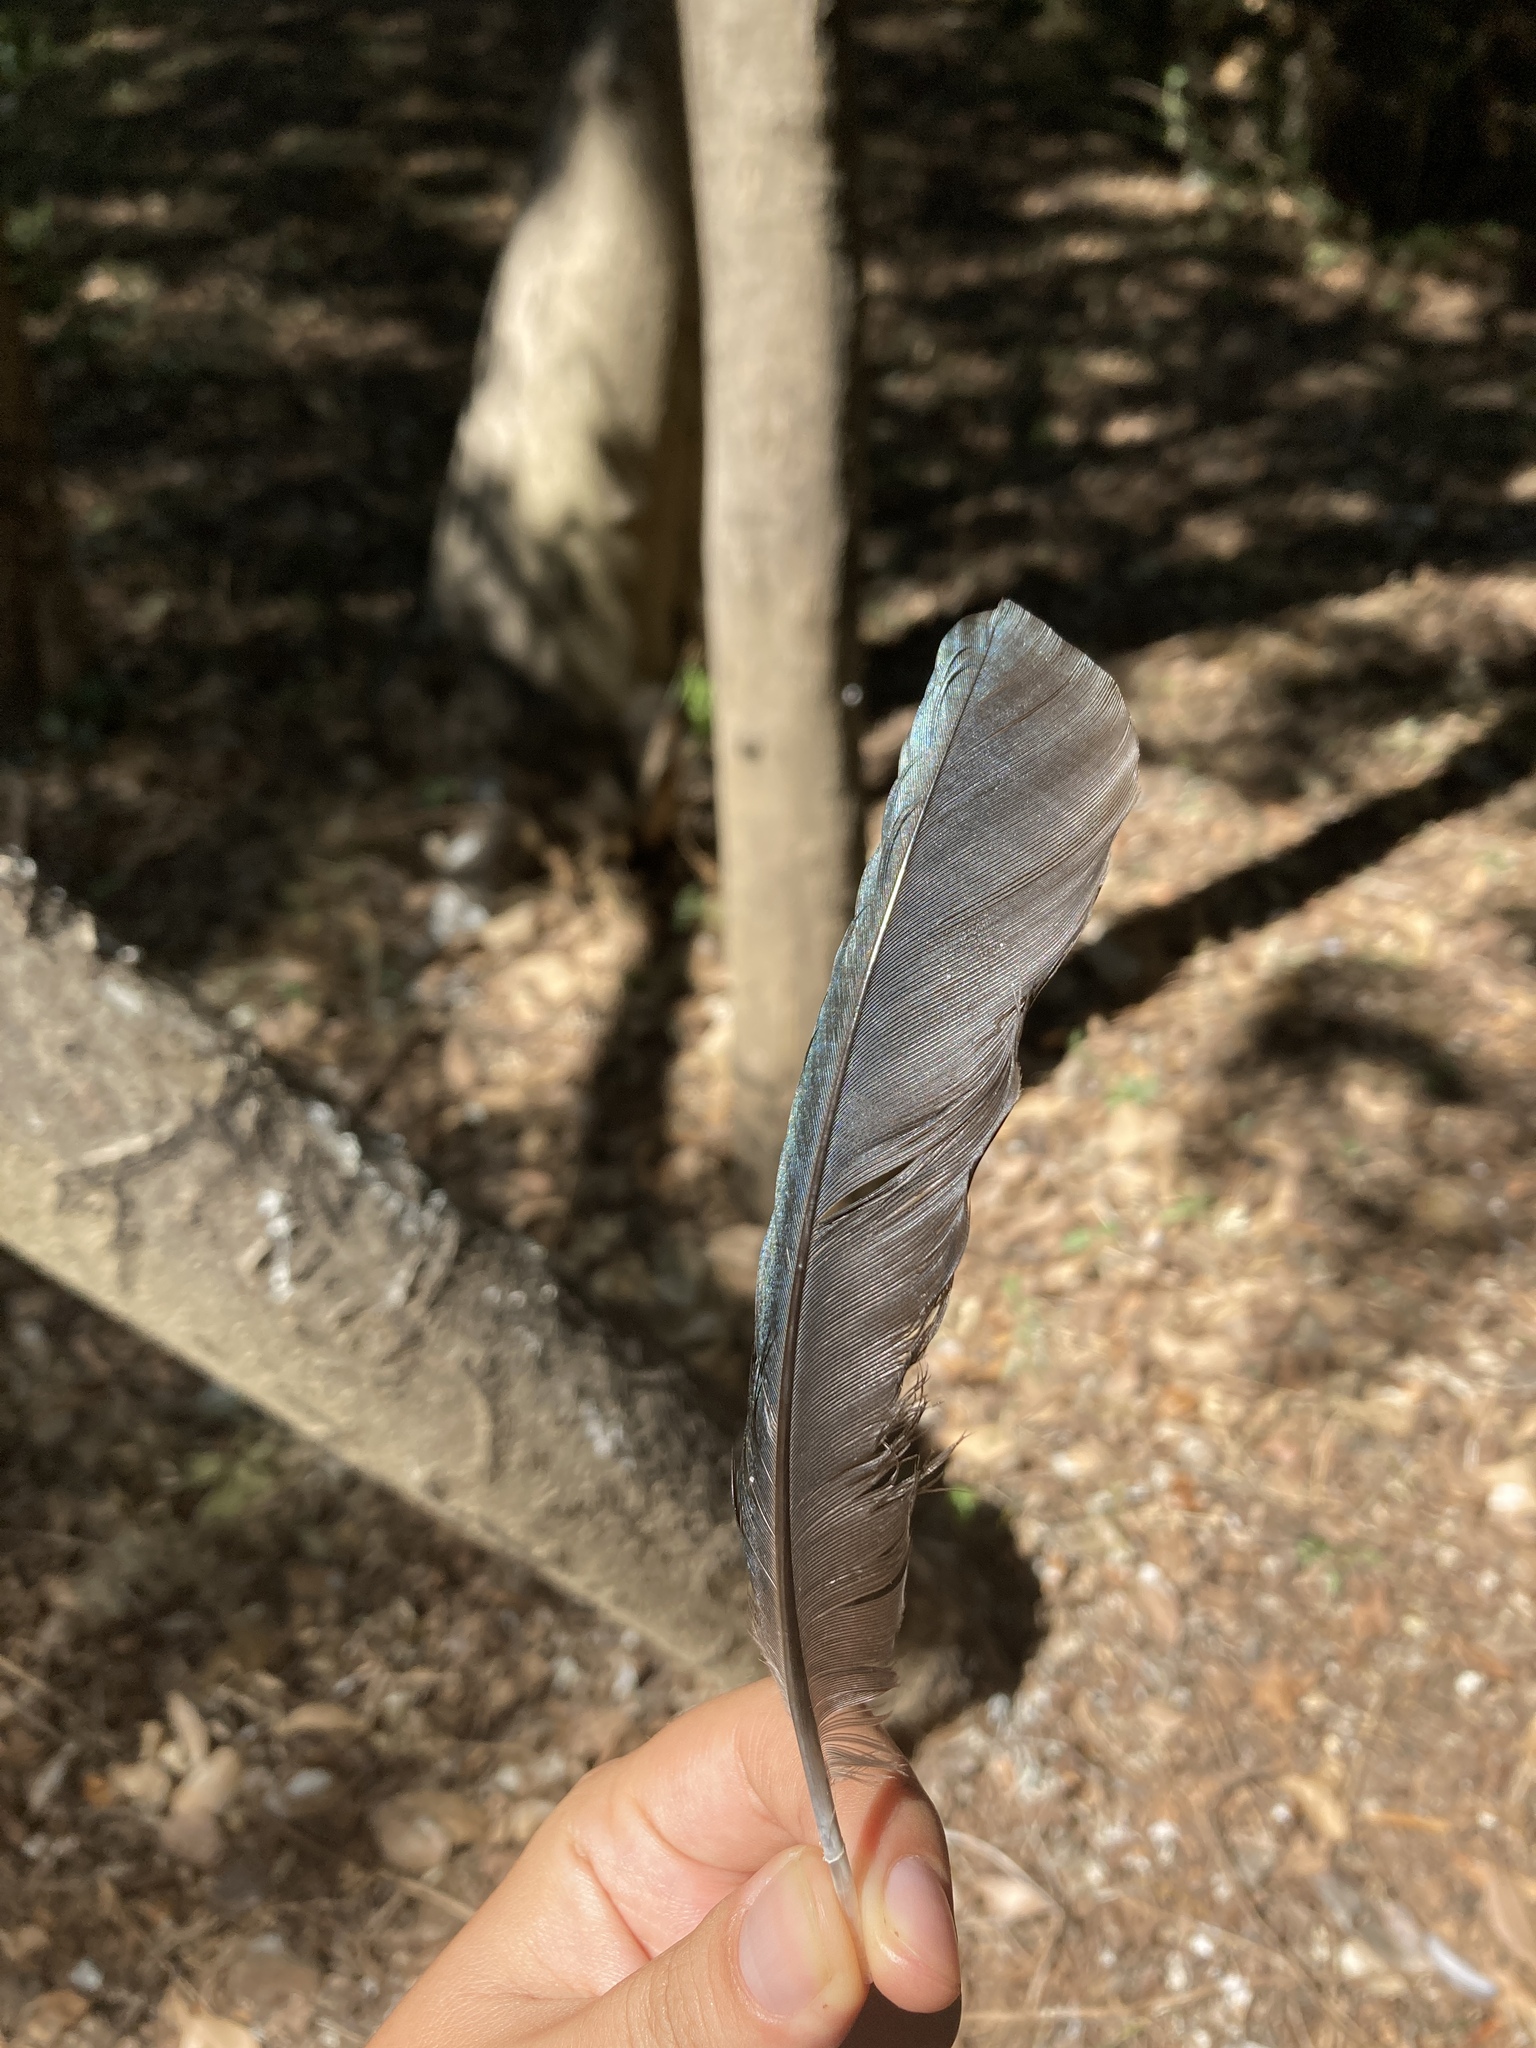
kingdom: Animalia
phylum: Chordata
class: Aves
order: Passeriformes
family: Corvidae
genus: Pica
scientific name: Pica pica
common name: Eurasian magpie
